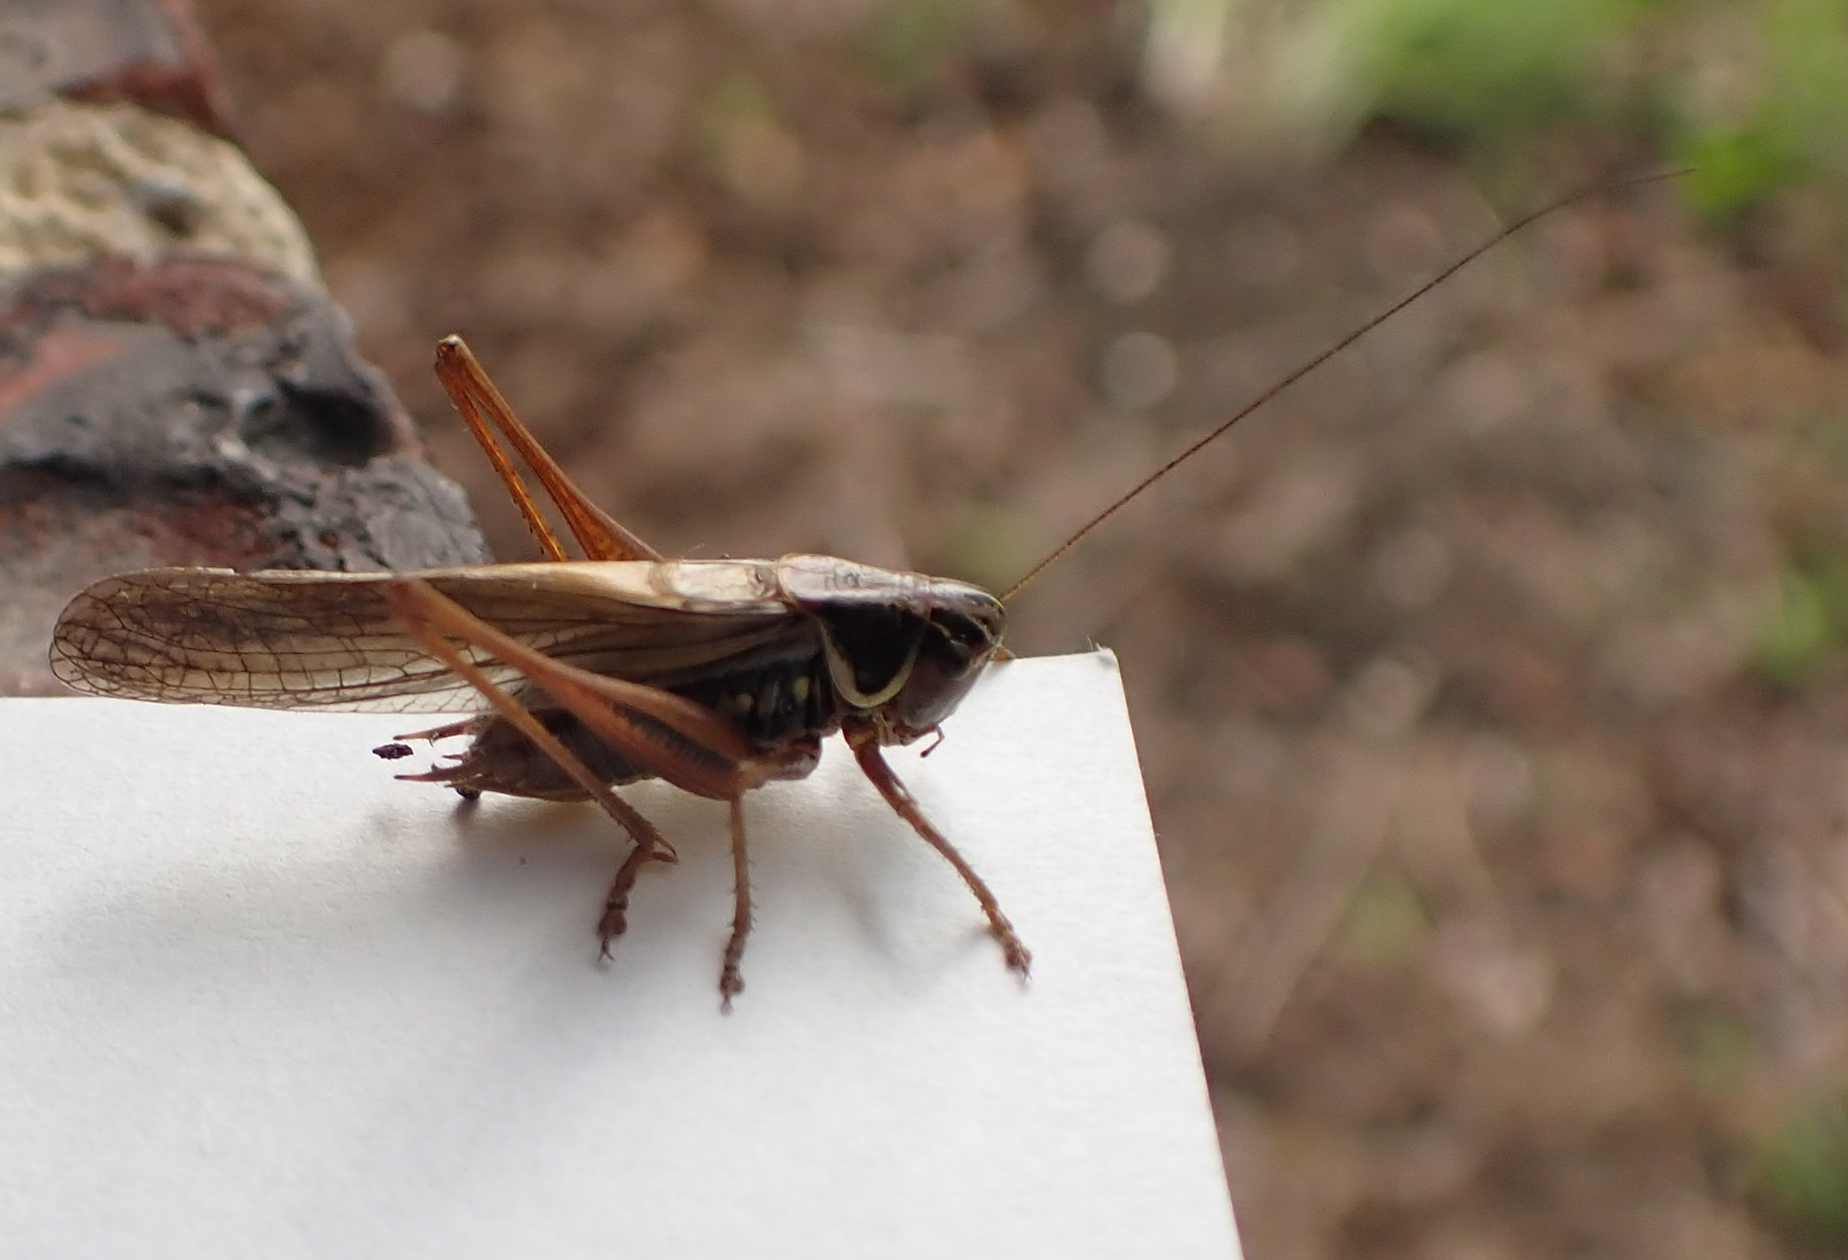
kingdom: Animalia
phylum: Arthropoda
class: Insecta
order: Orthoptera
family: Tettigoniidae
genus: Roeseliana
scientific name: Roeseliana roeselii
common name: Roesel's bush cricket
